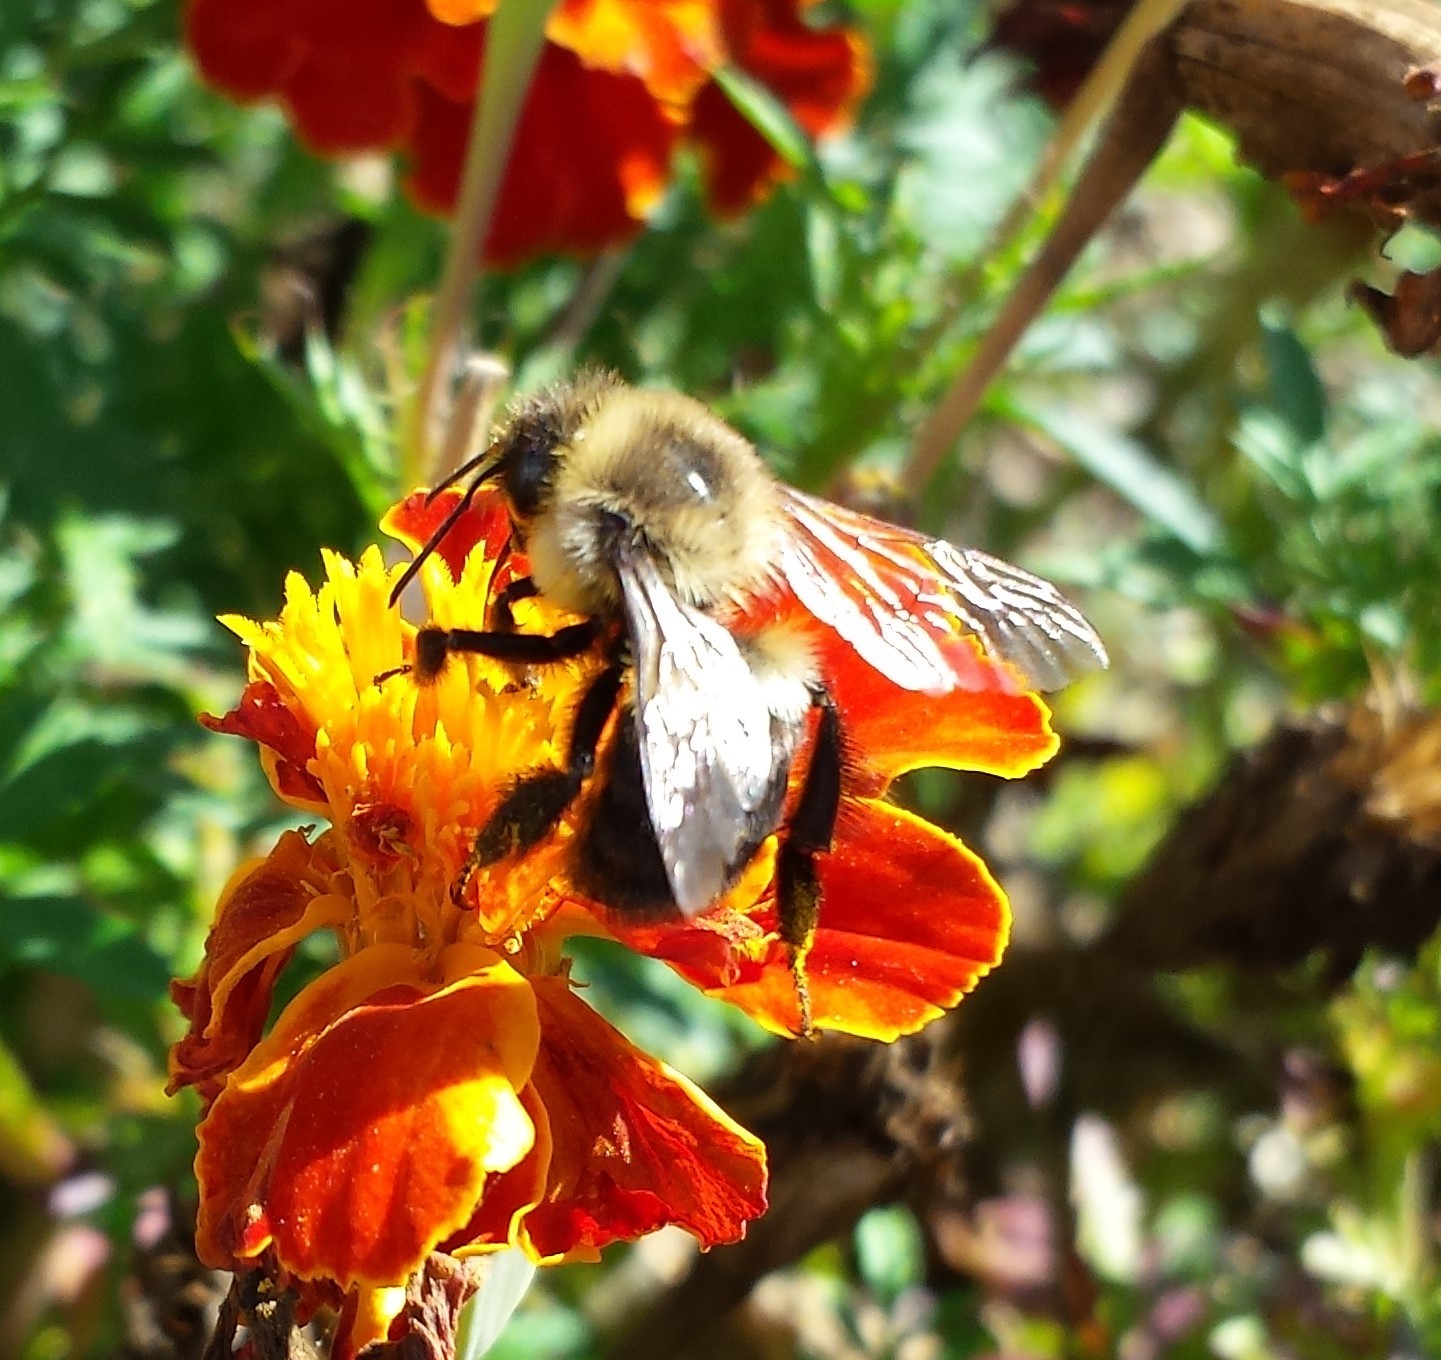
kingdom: Animalia
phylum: Arthropoda
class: Insecta
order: Hymenoptera
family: Apidae
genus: Bombus
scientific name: Bombus impatiens
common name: Common eastern bumble bee
